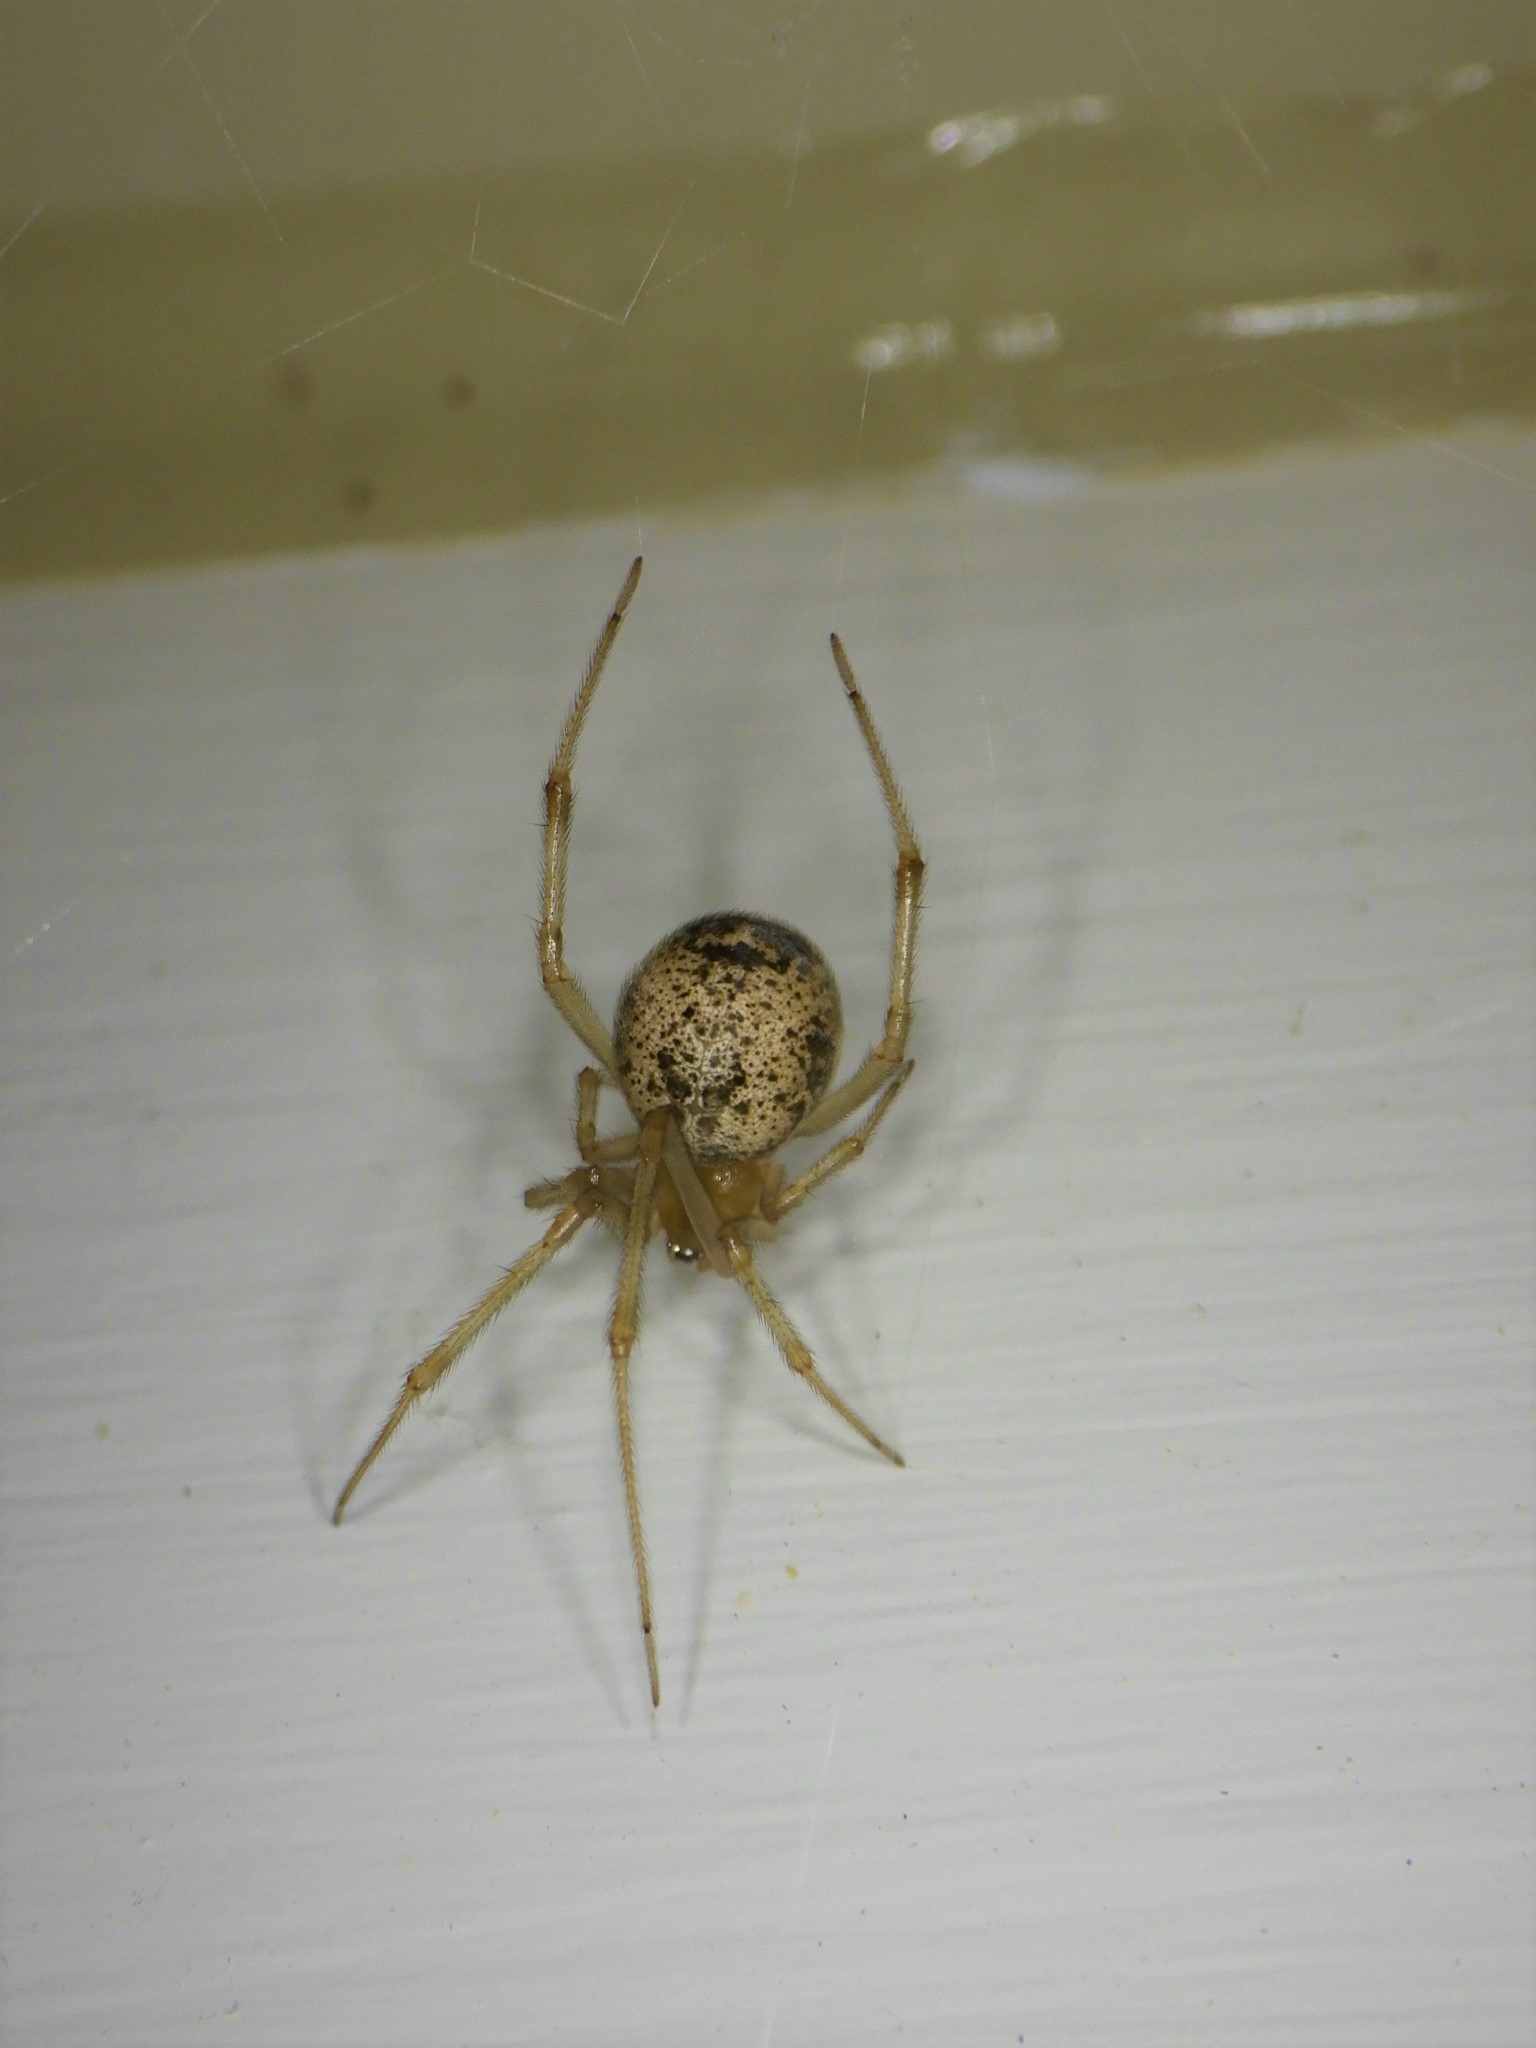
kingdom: Animalia
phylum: Arthropoda
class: Arachnida
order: Araneae
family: Theridiidae
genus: Parasteatoda
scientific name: Parasteatoda tepidariorum
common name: Common house spider
